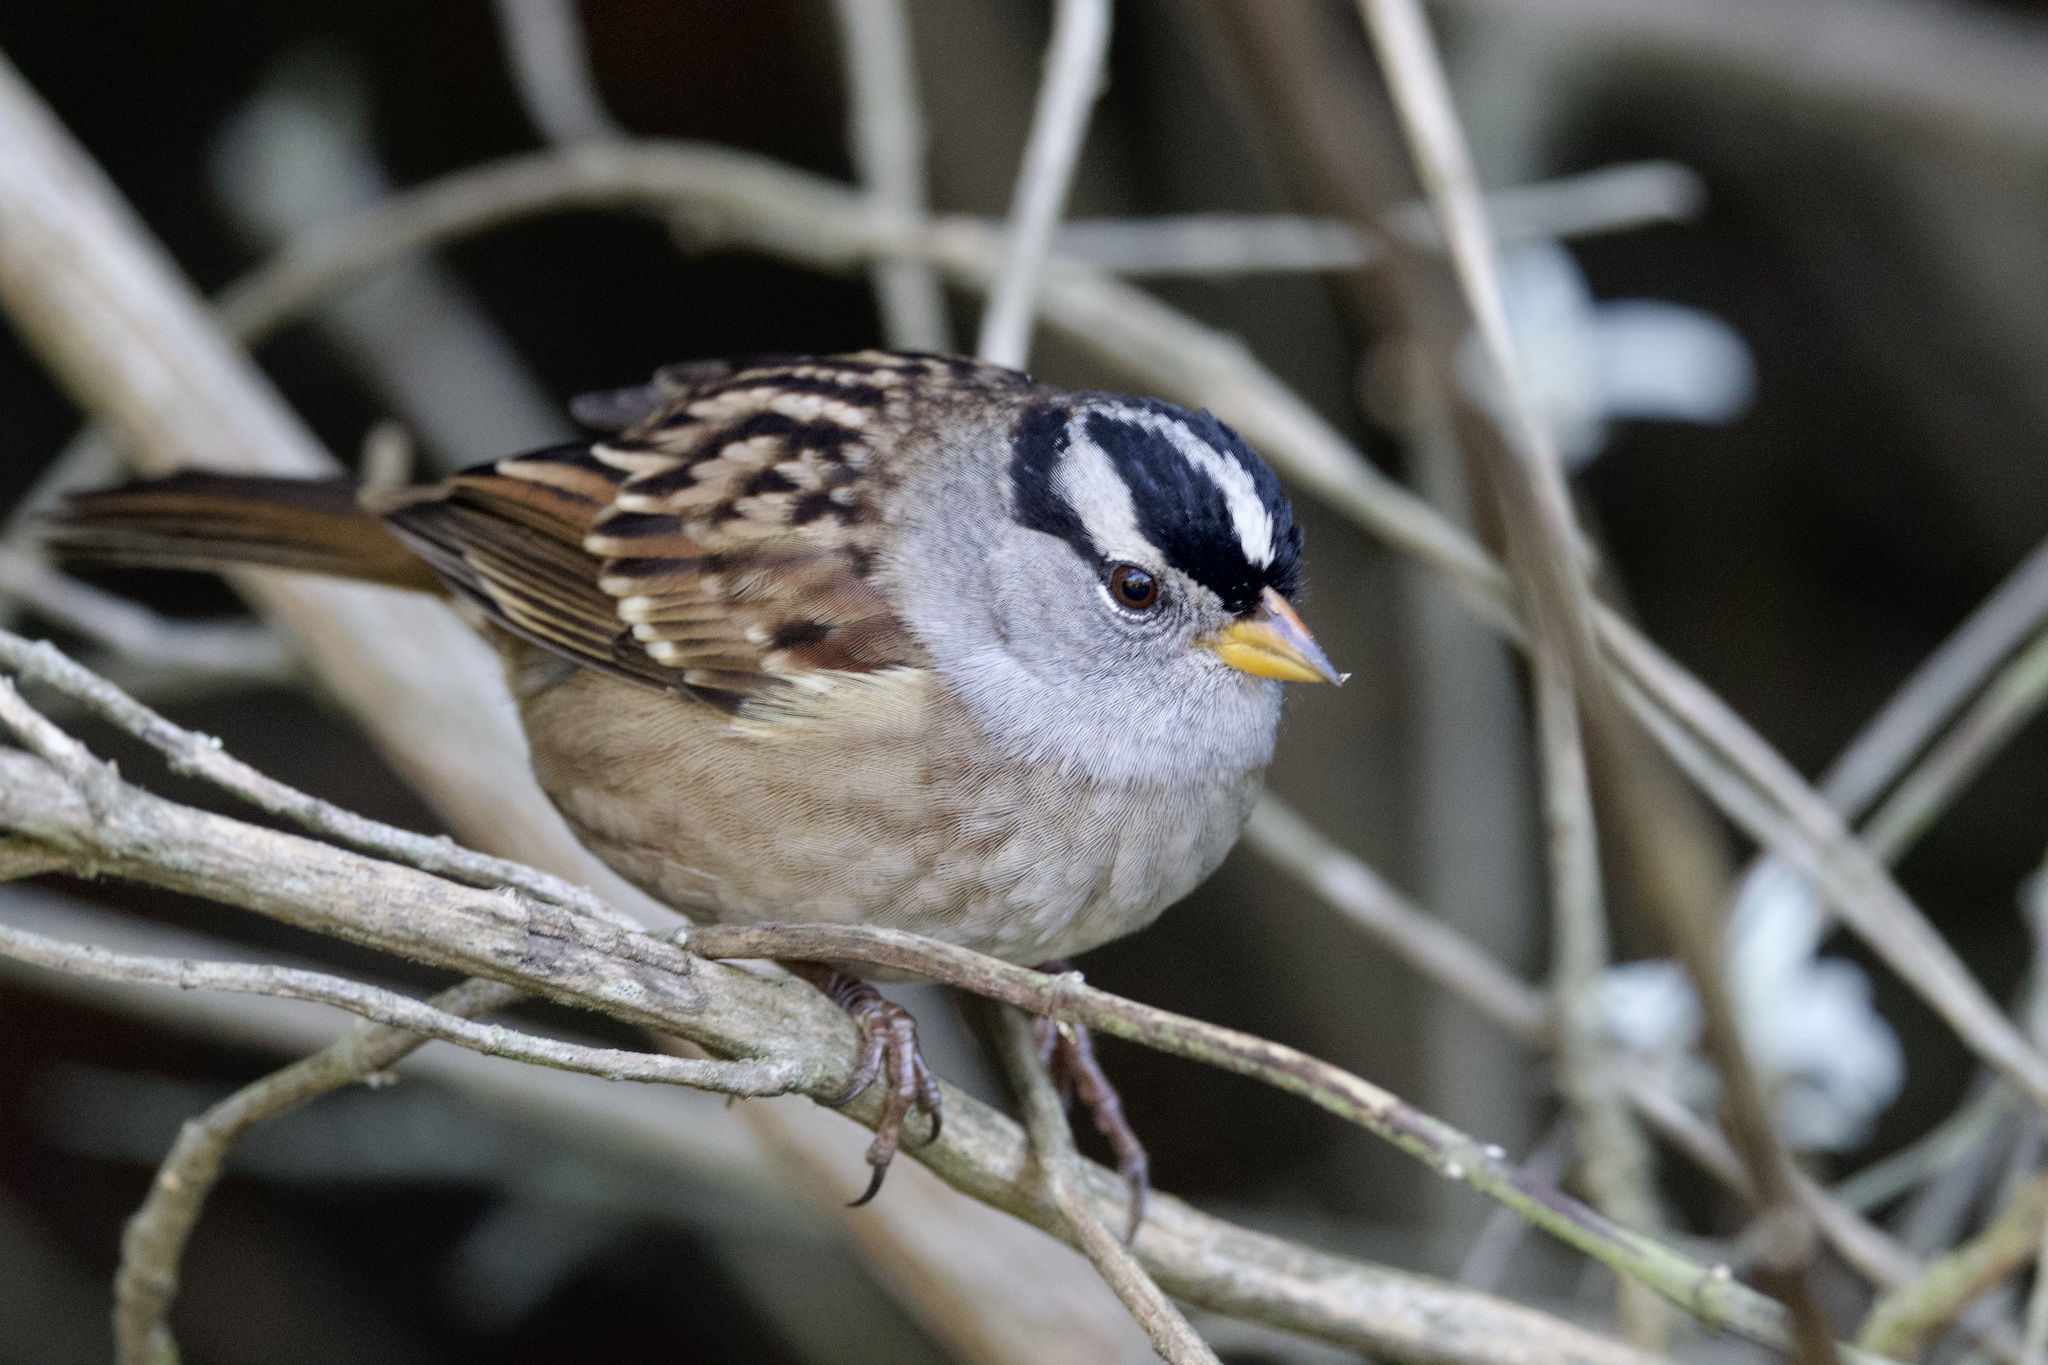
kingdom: Animalia
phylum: Chordata
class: Aves
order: Passeriformes
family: Passerellidae
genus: Zonotrichia
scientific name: Zonotrichia leucophrys
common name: White-crowned sparrow
